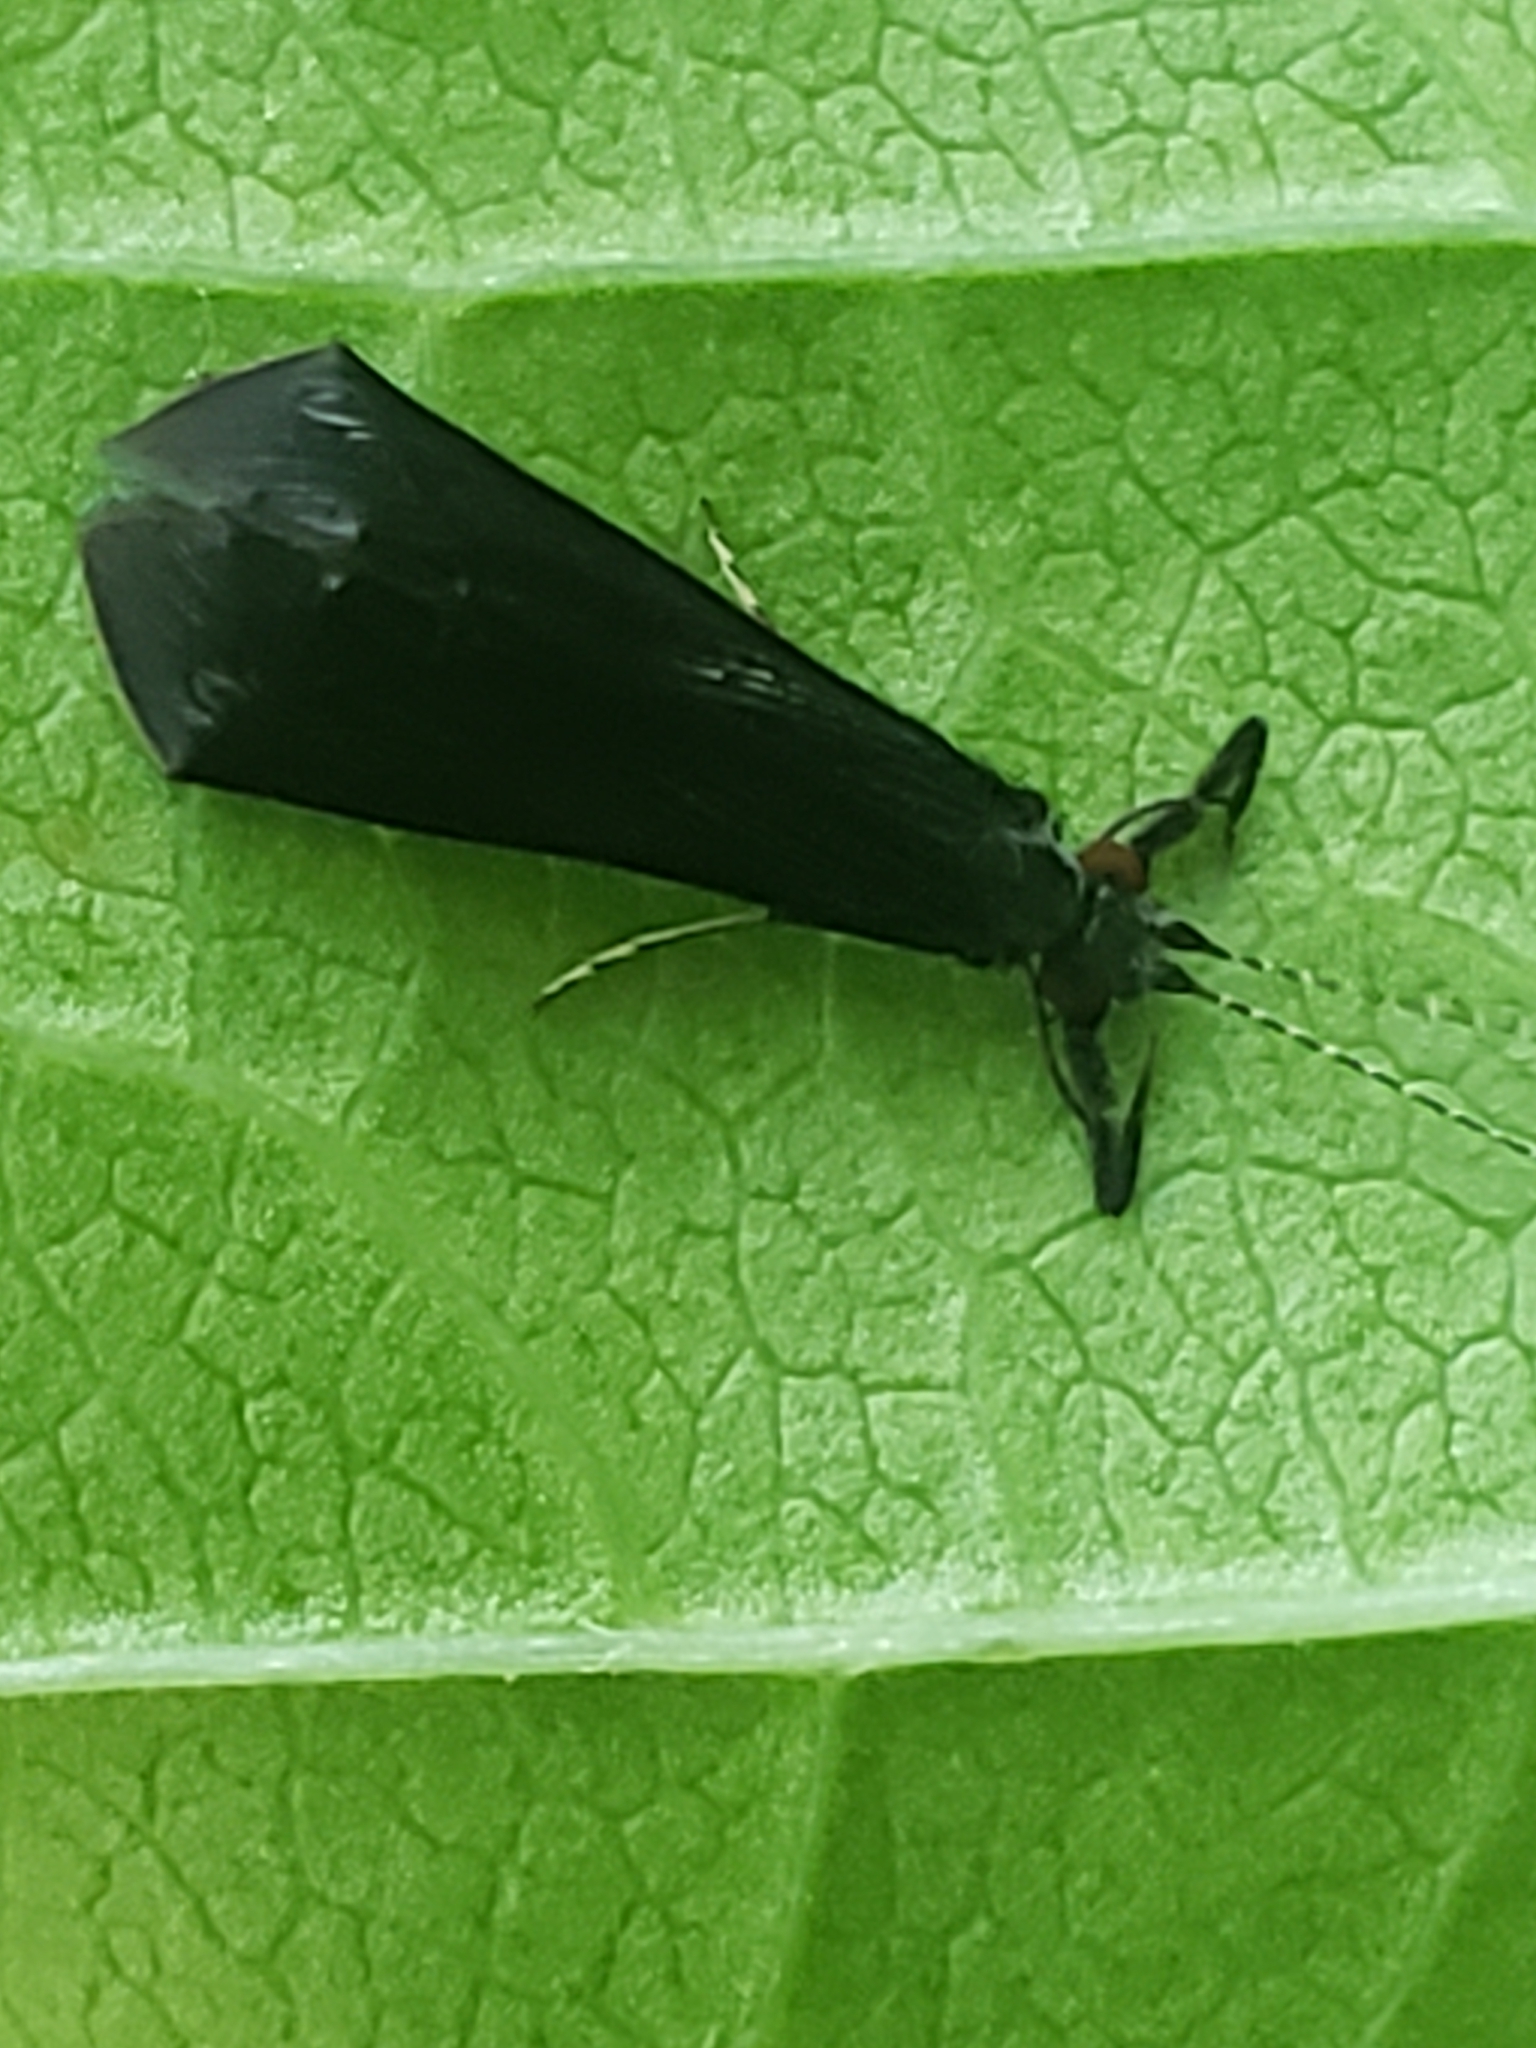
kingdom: Animalia
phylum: Arthropoda
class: Insecta
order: Trichoptera
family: Leptoceridae
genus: Mystacides
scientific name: Mystacides sepulchralis
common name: Black dancer caddisfly
